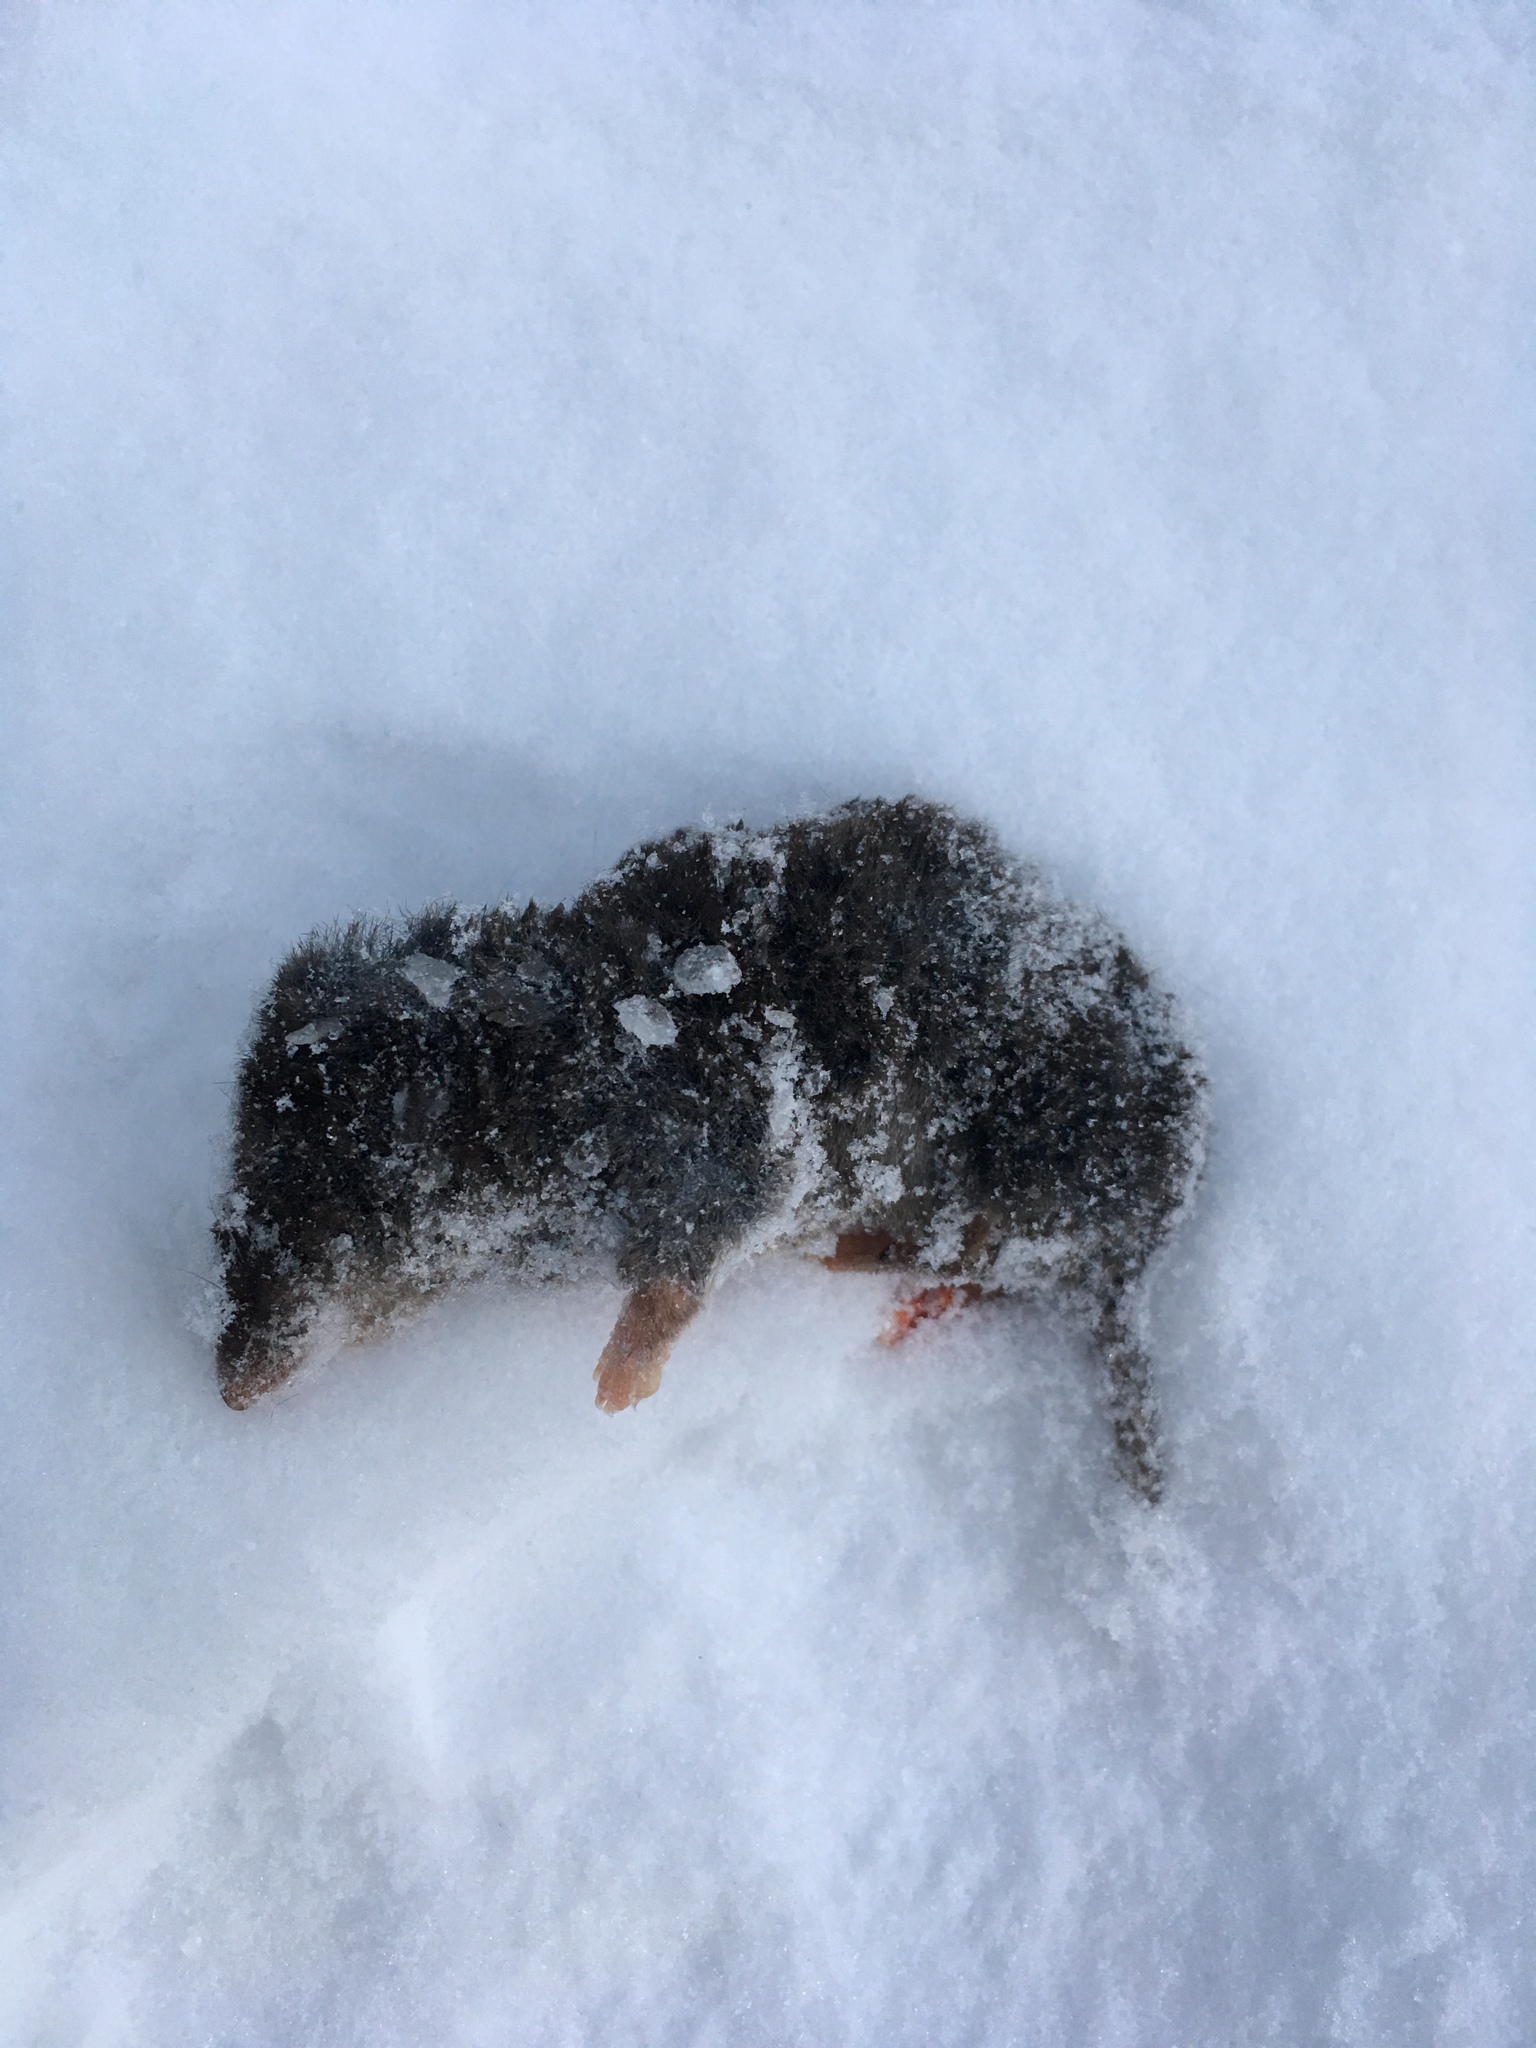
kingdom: Animalia
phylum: Chordata
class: Mammalia
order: Soricomorpha
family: Soricidae
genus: Blarina
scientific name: Blarina brevicauda
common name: Northern short-tailed shrew
